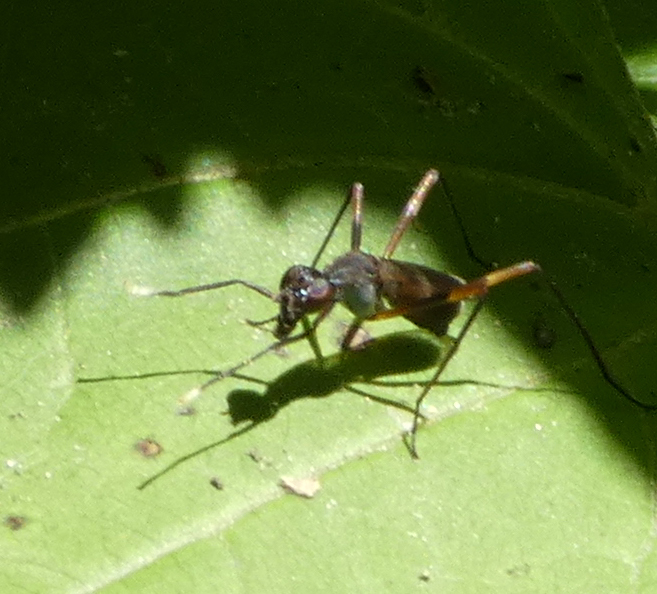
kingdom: Animalia
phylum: Arthropoda
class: Insecta
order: Diptera
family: Micropezidae
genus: Taeniaptera
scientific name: Taeniaptera trivittata
